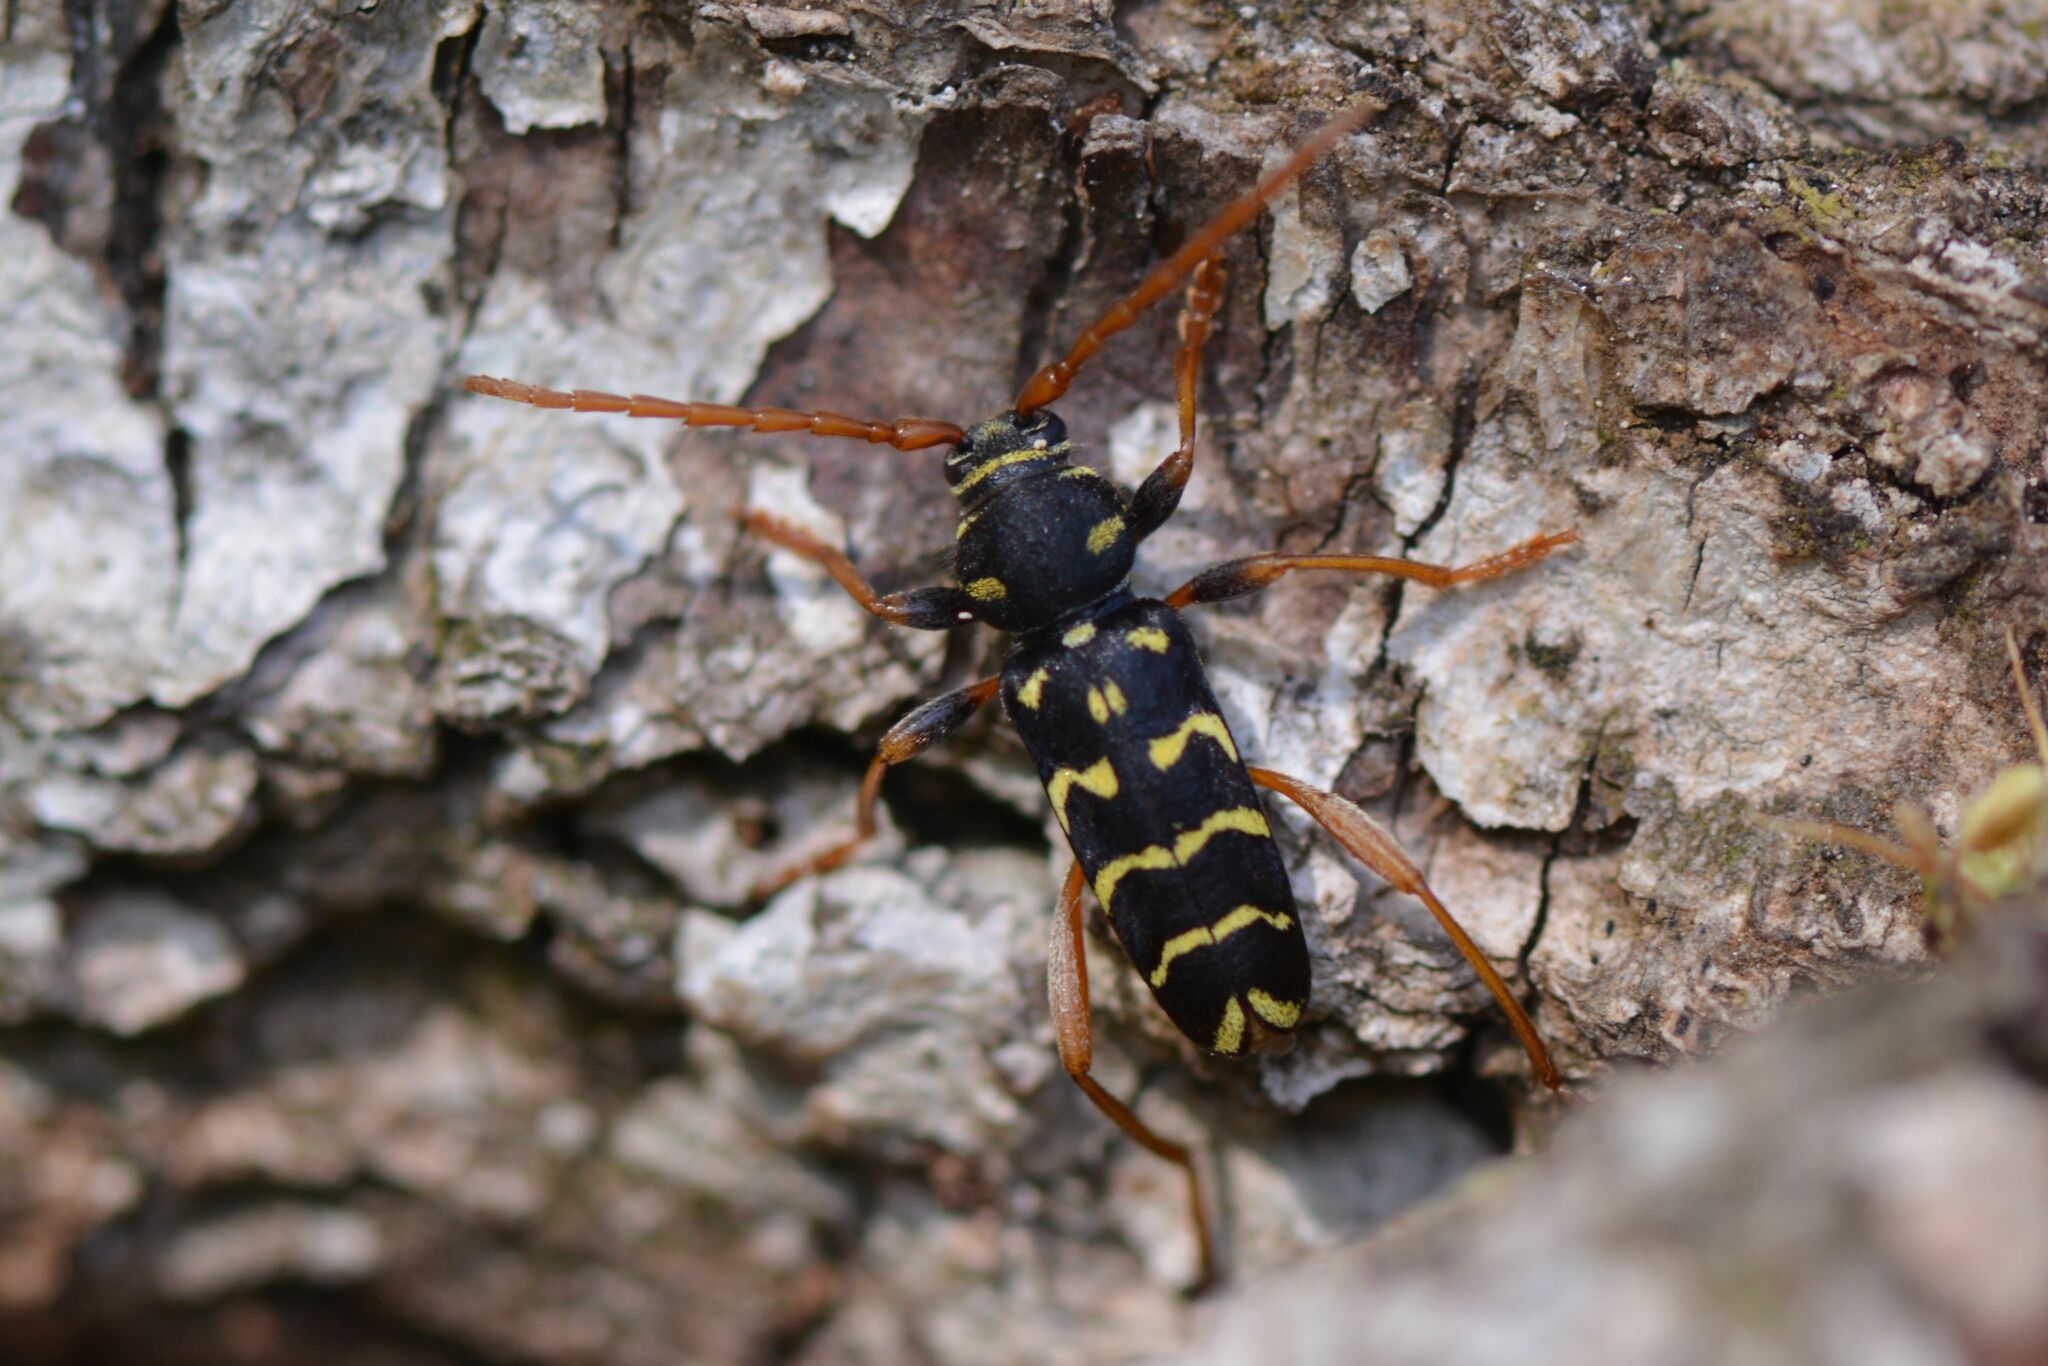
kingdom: Animalia
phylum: Arthropoda
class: Insecta
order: Coleoptera
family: Cerambycidae
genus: Plagionotus
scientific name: Plagionotus arcuatus
